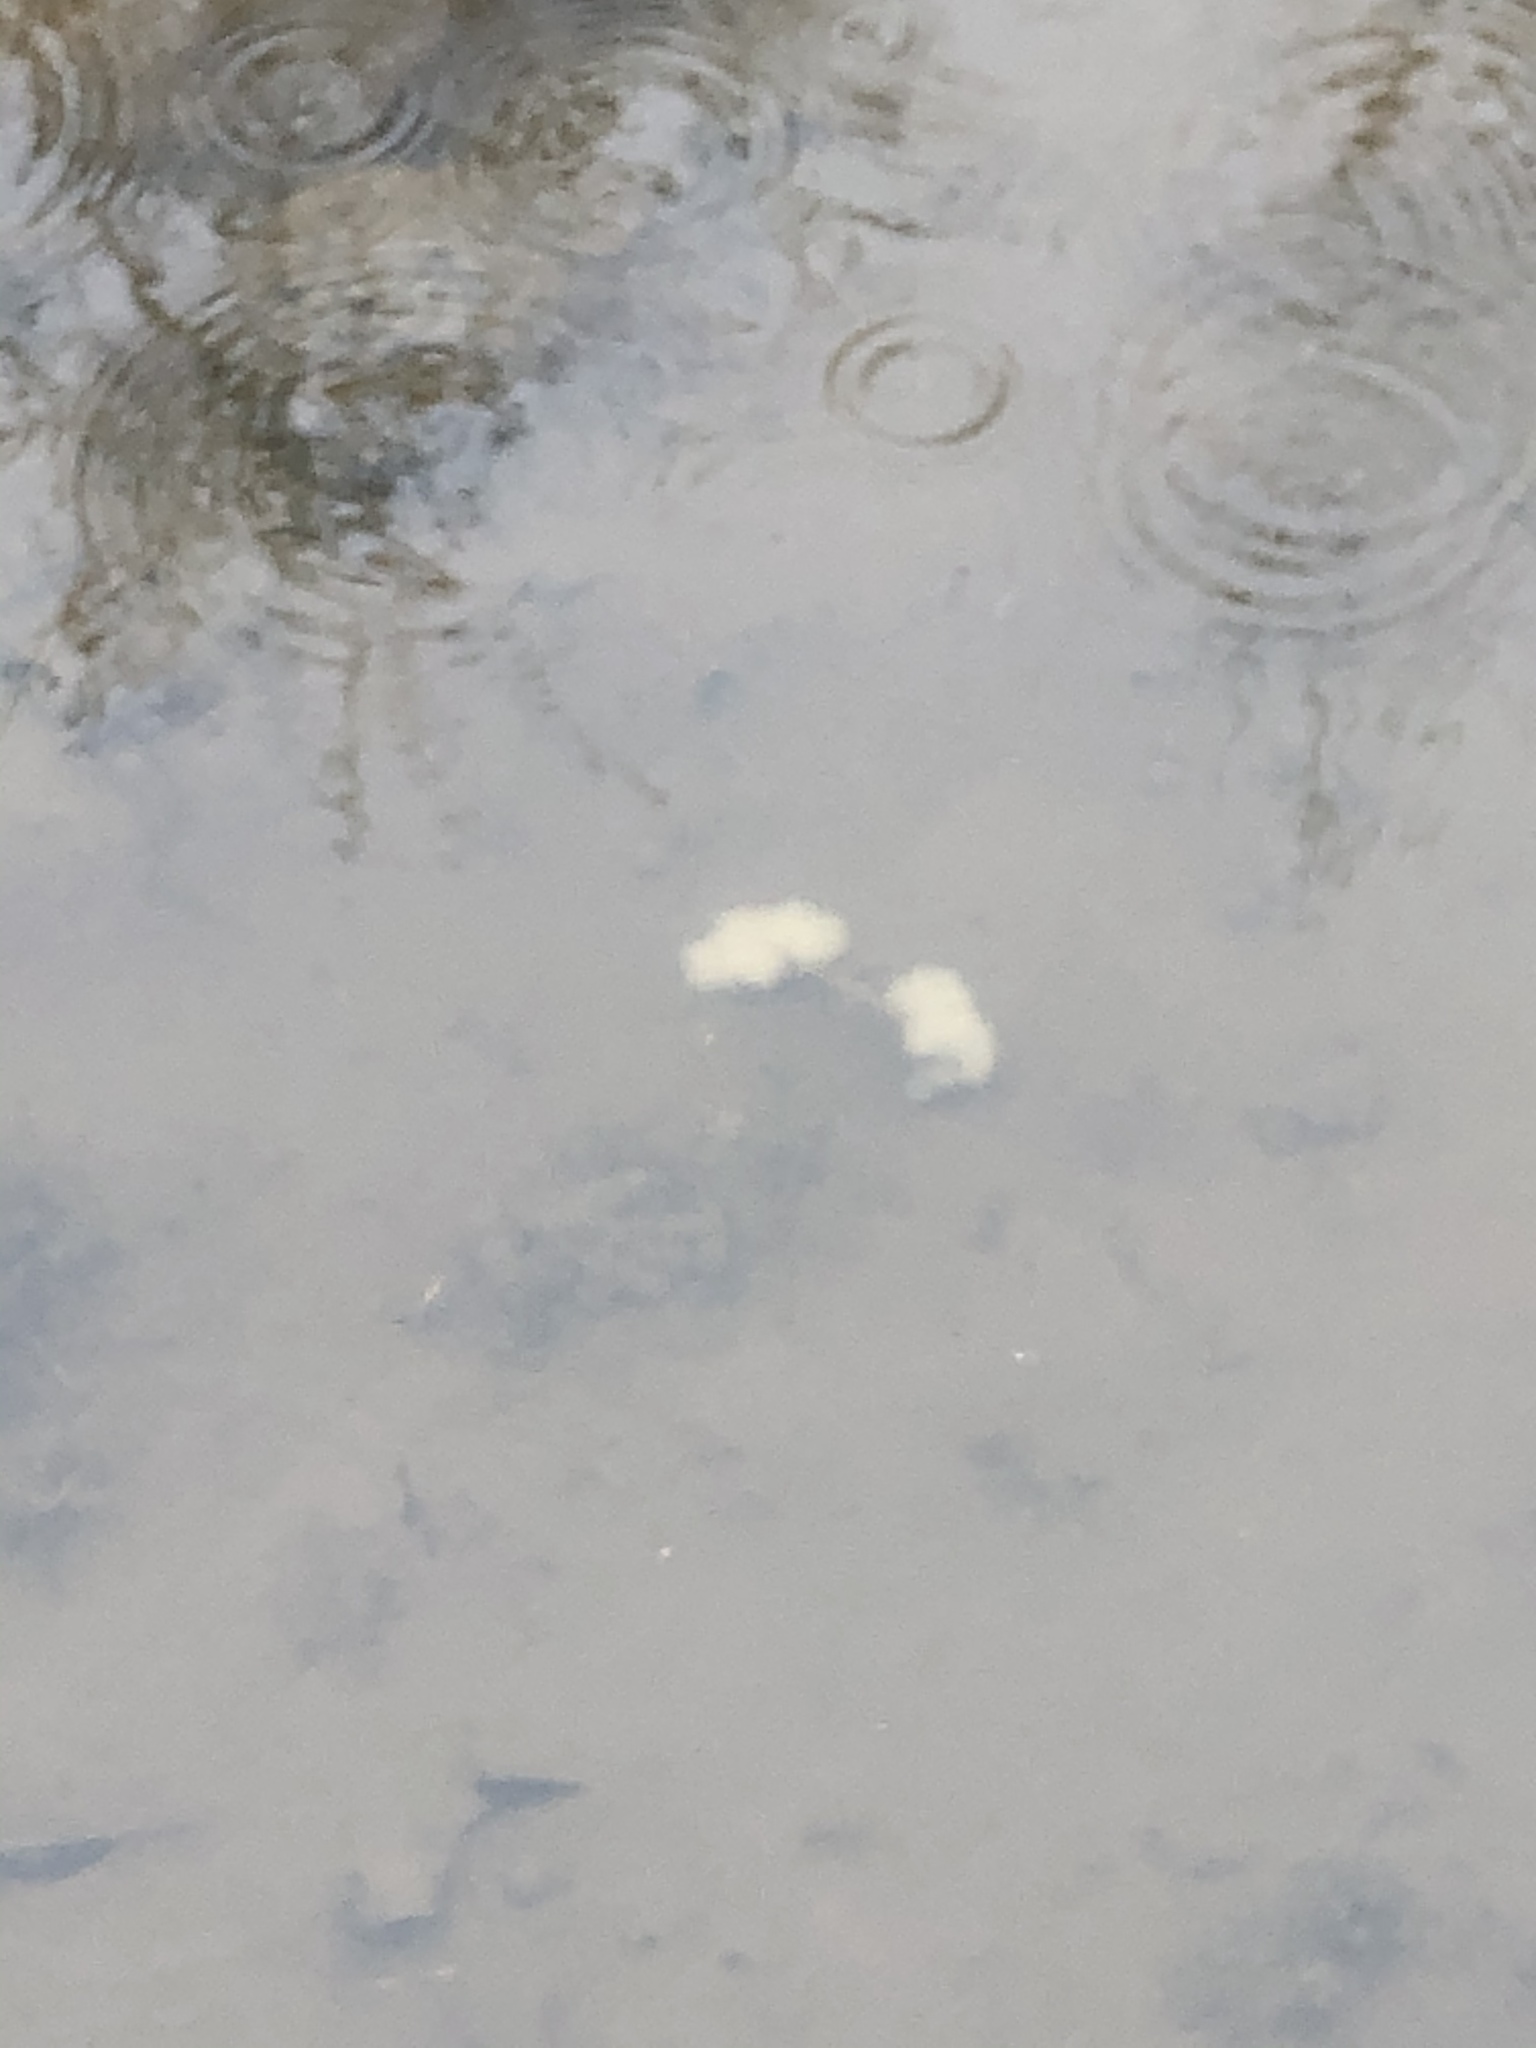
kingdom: Animalia
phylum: Chordata
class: Amphibia
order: Caudata
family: Ambystomatidae
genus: Ambystoma
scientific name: Ambystoma maculatum
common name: Spotted salamander
